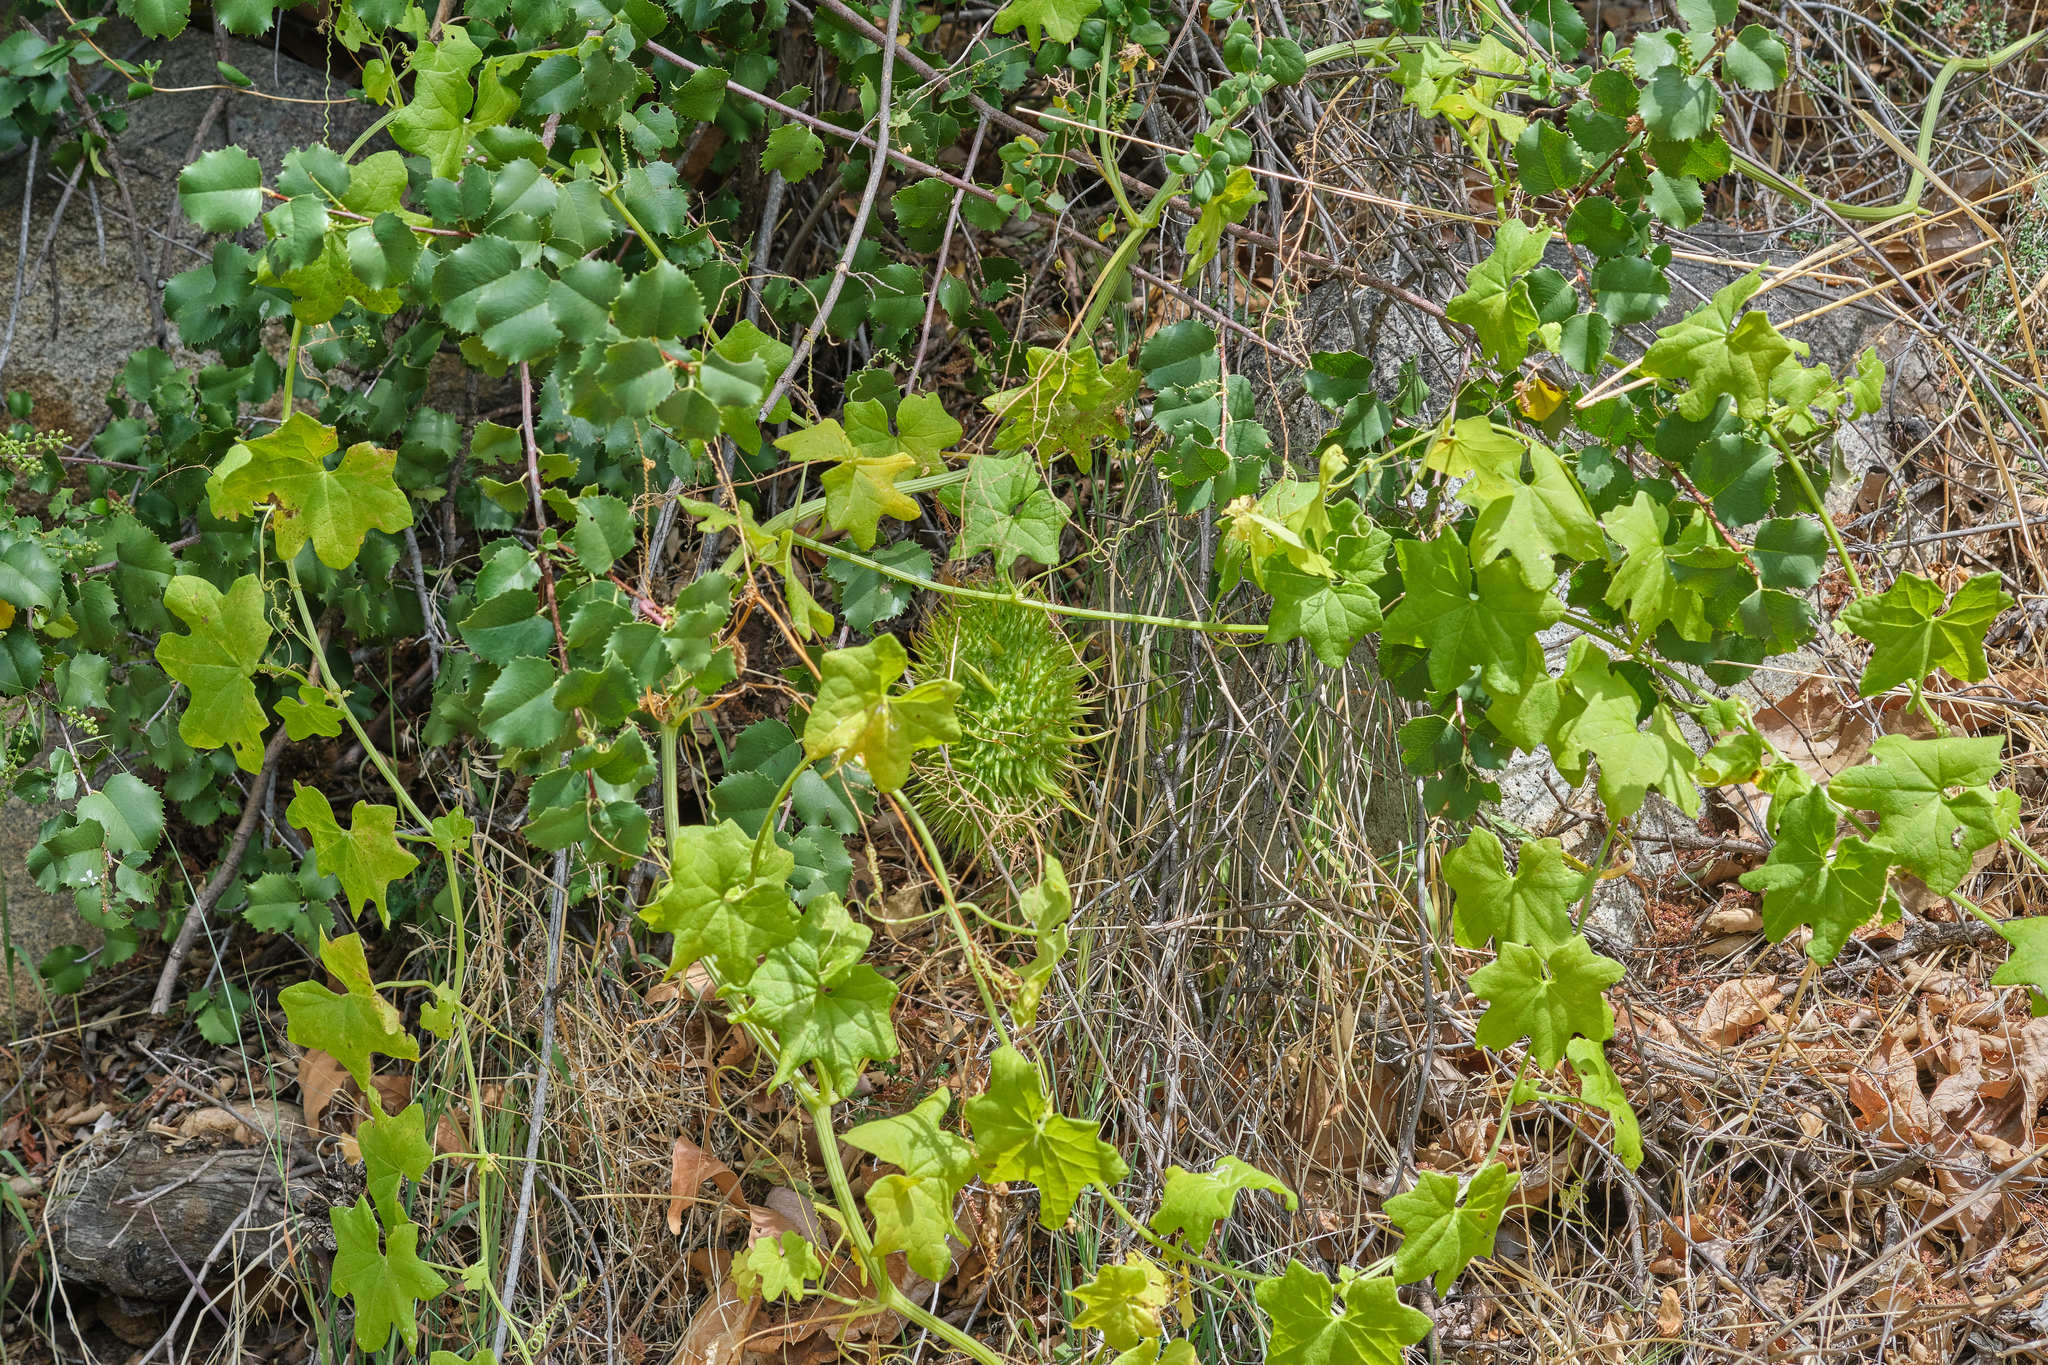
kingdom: Plantae
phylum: Tracheophyta
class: Magnoliopsida
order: Cucurbitales
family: Cucurbitaceae
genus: Marah
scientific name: Marah macrocarpa
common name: Cucamonga manroot
